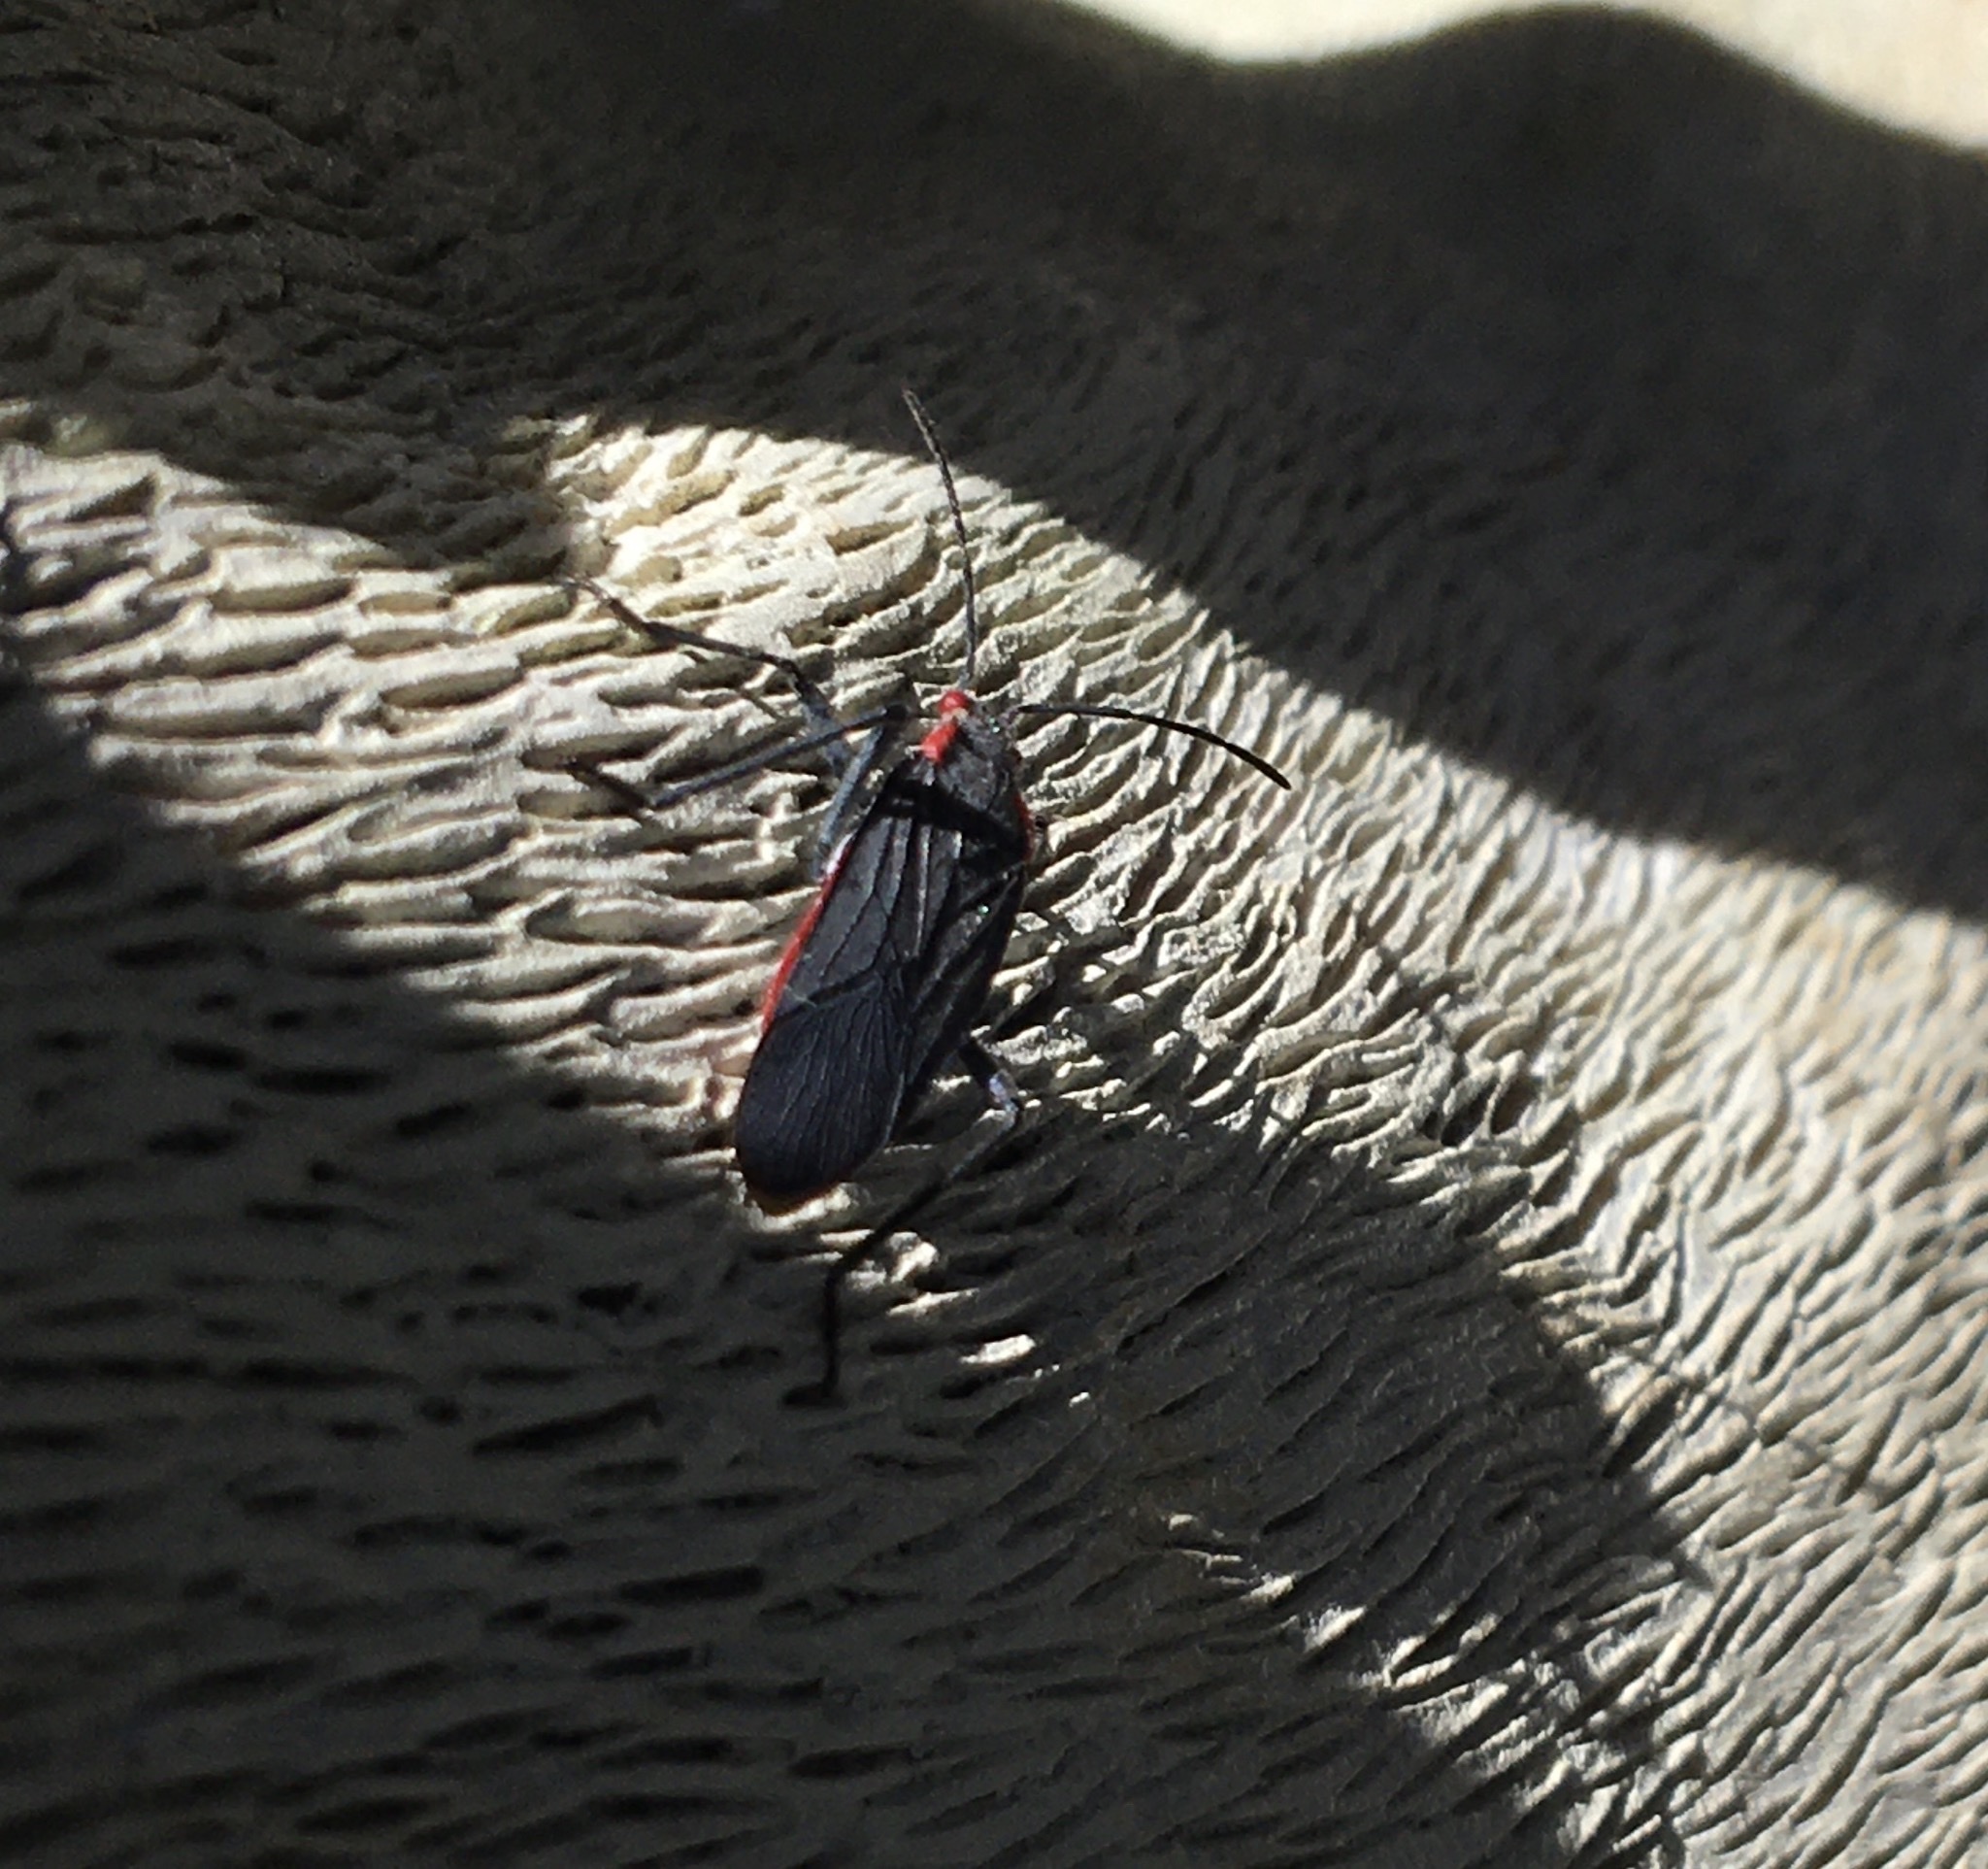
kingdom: Animalia
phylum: Arthropoda
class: Insecta
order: Hemiptera
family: Rhopalidae
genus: Jadera
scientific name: Jadera haematoloma
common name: Red-shouldered bug
